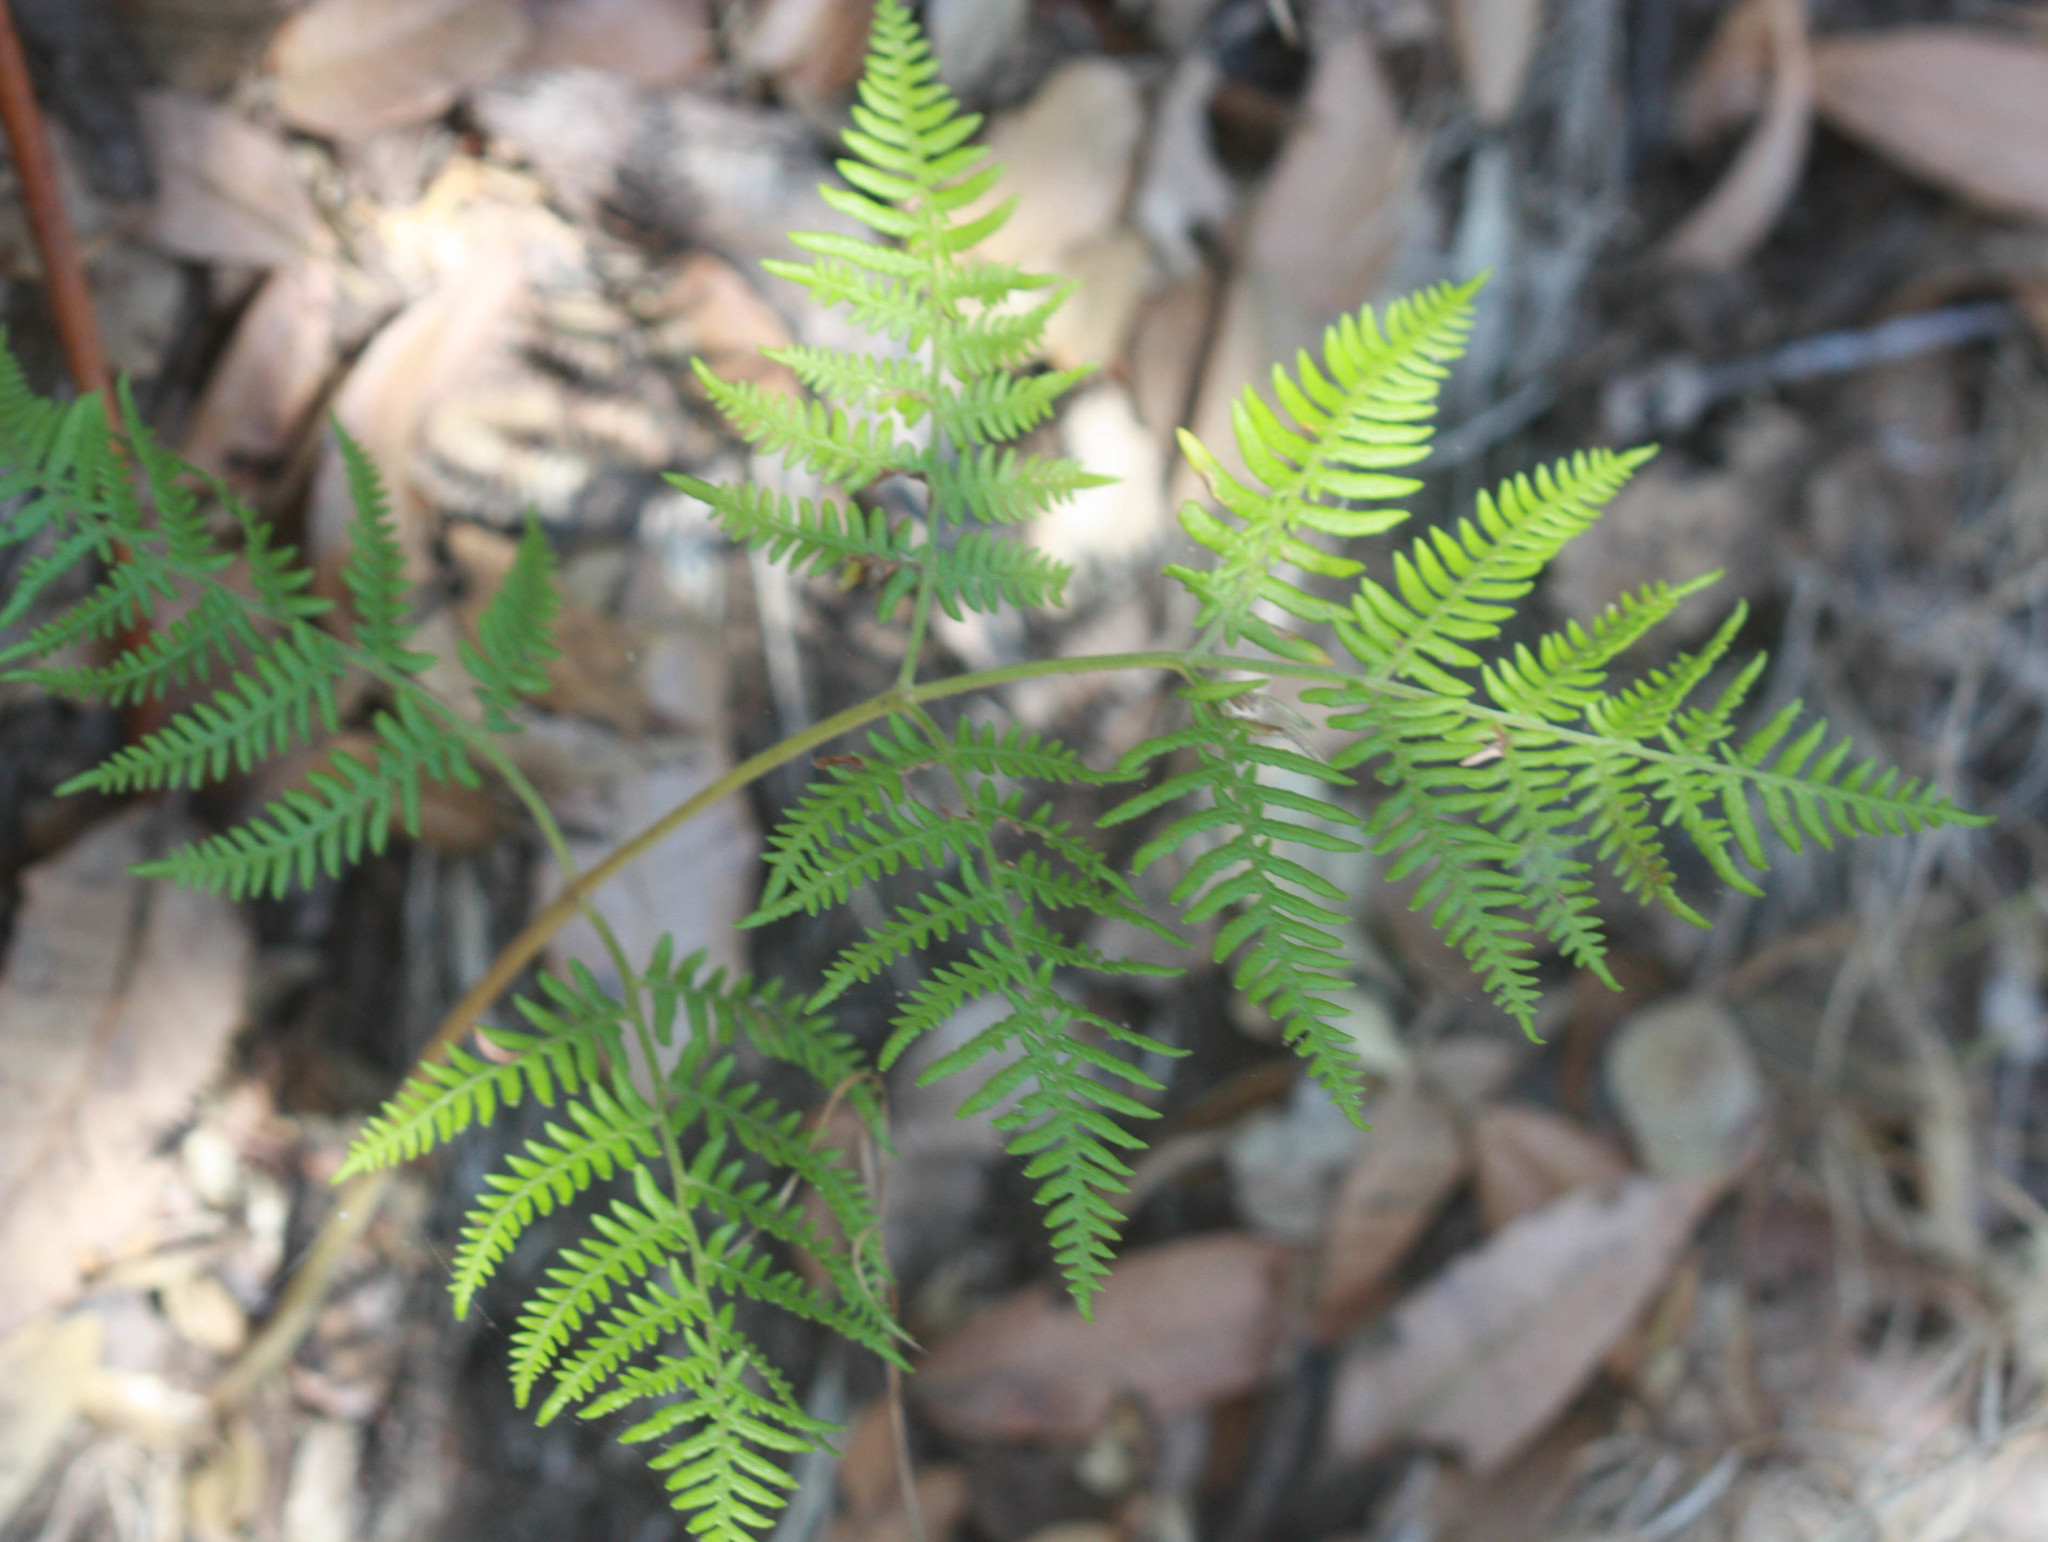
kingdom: Plantae
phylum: Tracheophyta
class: Polypodiopsida
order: Polypodiales
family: Dennstaedtiaceae
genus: Pteridium
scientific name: Pteridium aquilinum
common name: Bracken
